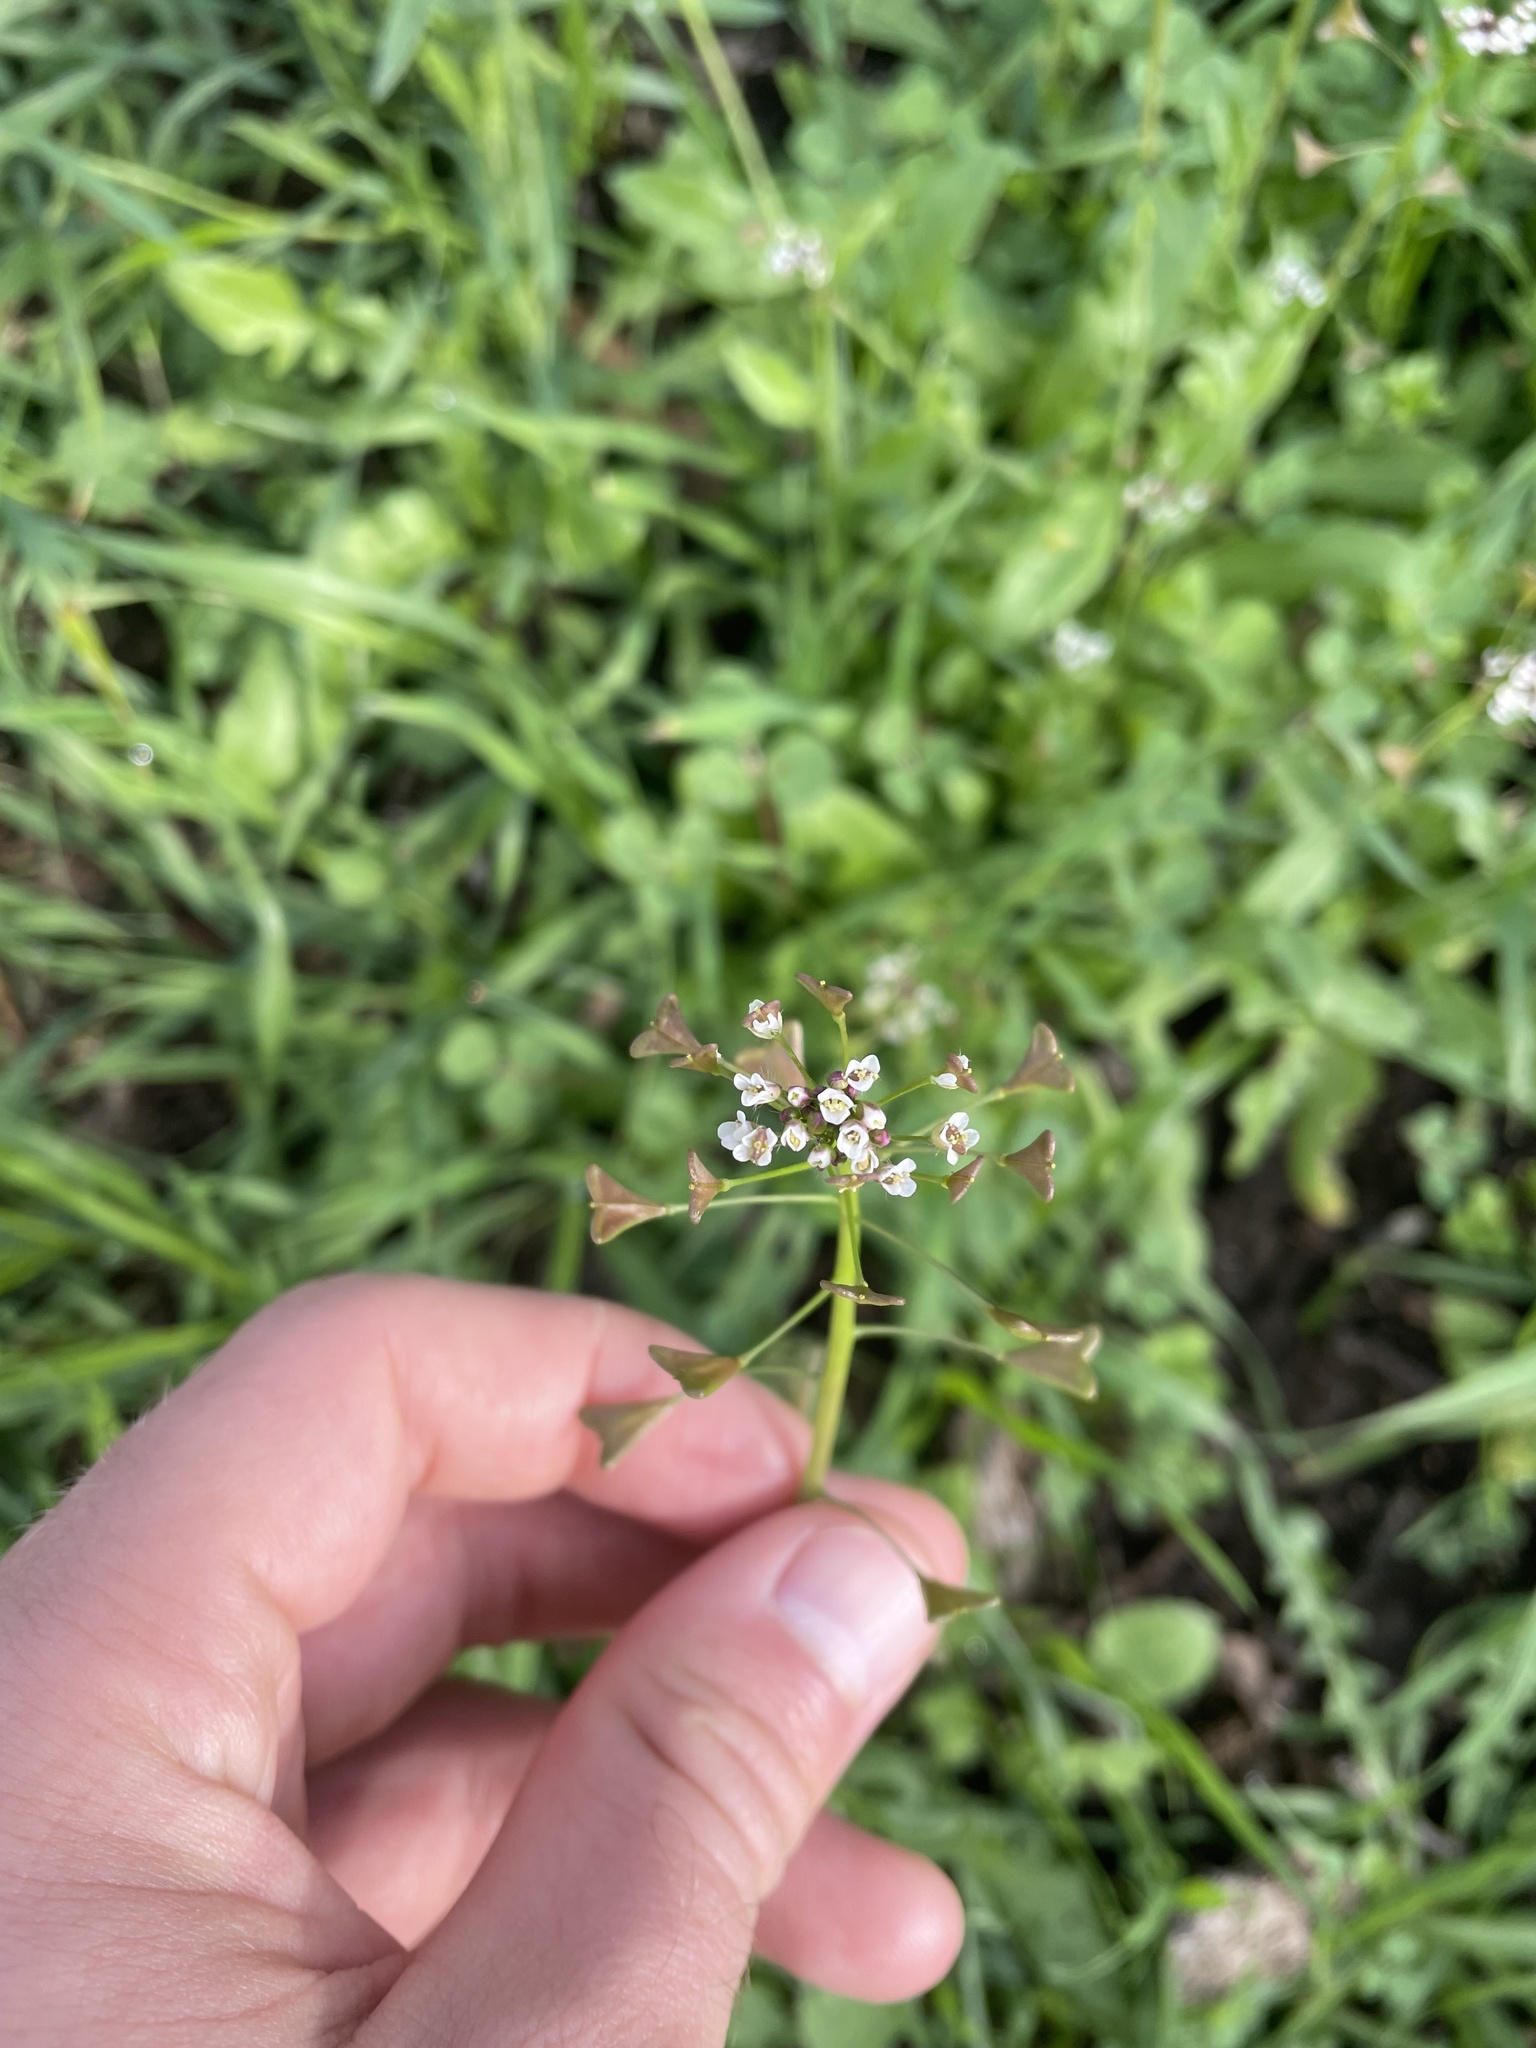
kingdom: Plantae
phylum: Tracheophyta
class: Magnoliopsida
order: Brassicales
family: Brassicaceae
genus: Capsella
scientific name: Capsella bursa-pastoris
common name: Shepherd's purse
